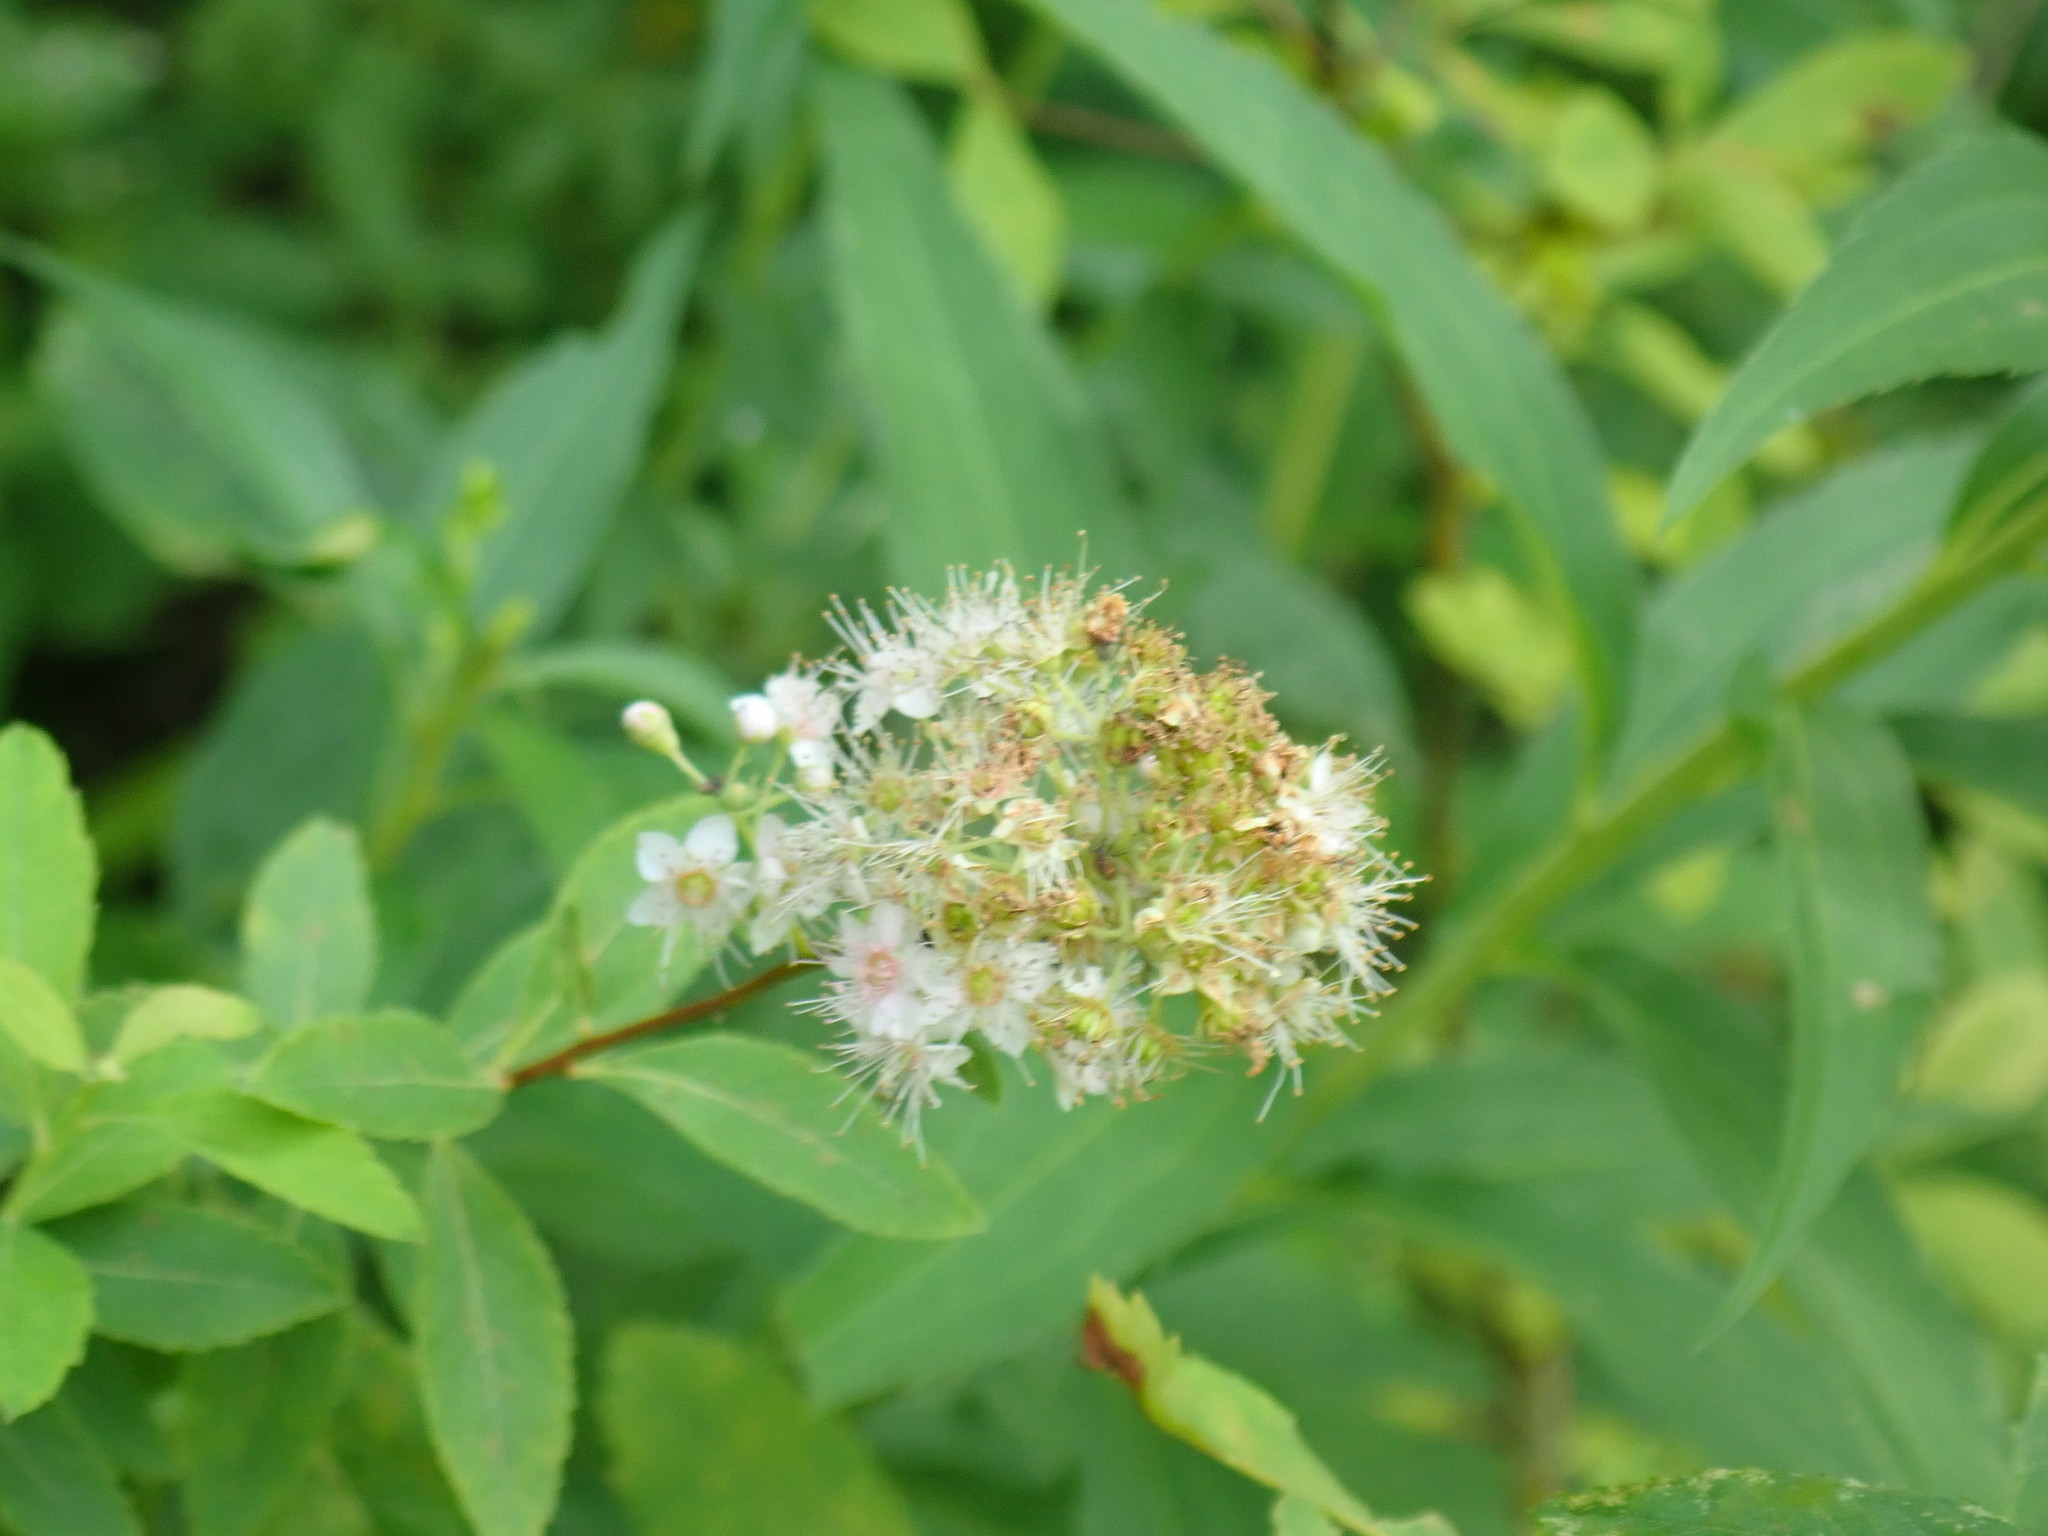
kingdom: Plantae
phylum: Tracheophyta
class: Magnoliopsida
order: Rosales
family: Rosaceae
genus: Spiraea
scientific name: Spiraea alba
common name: Pale bridewort
